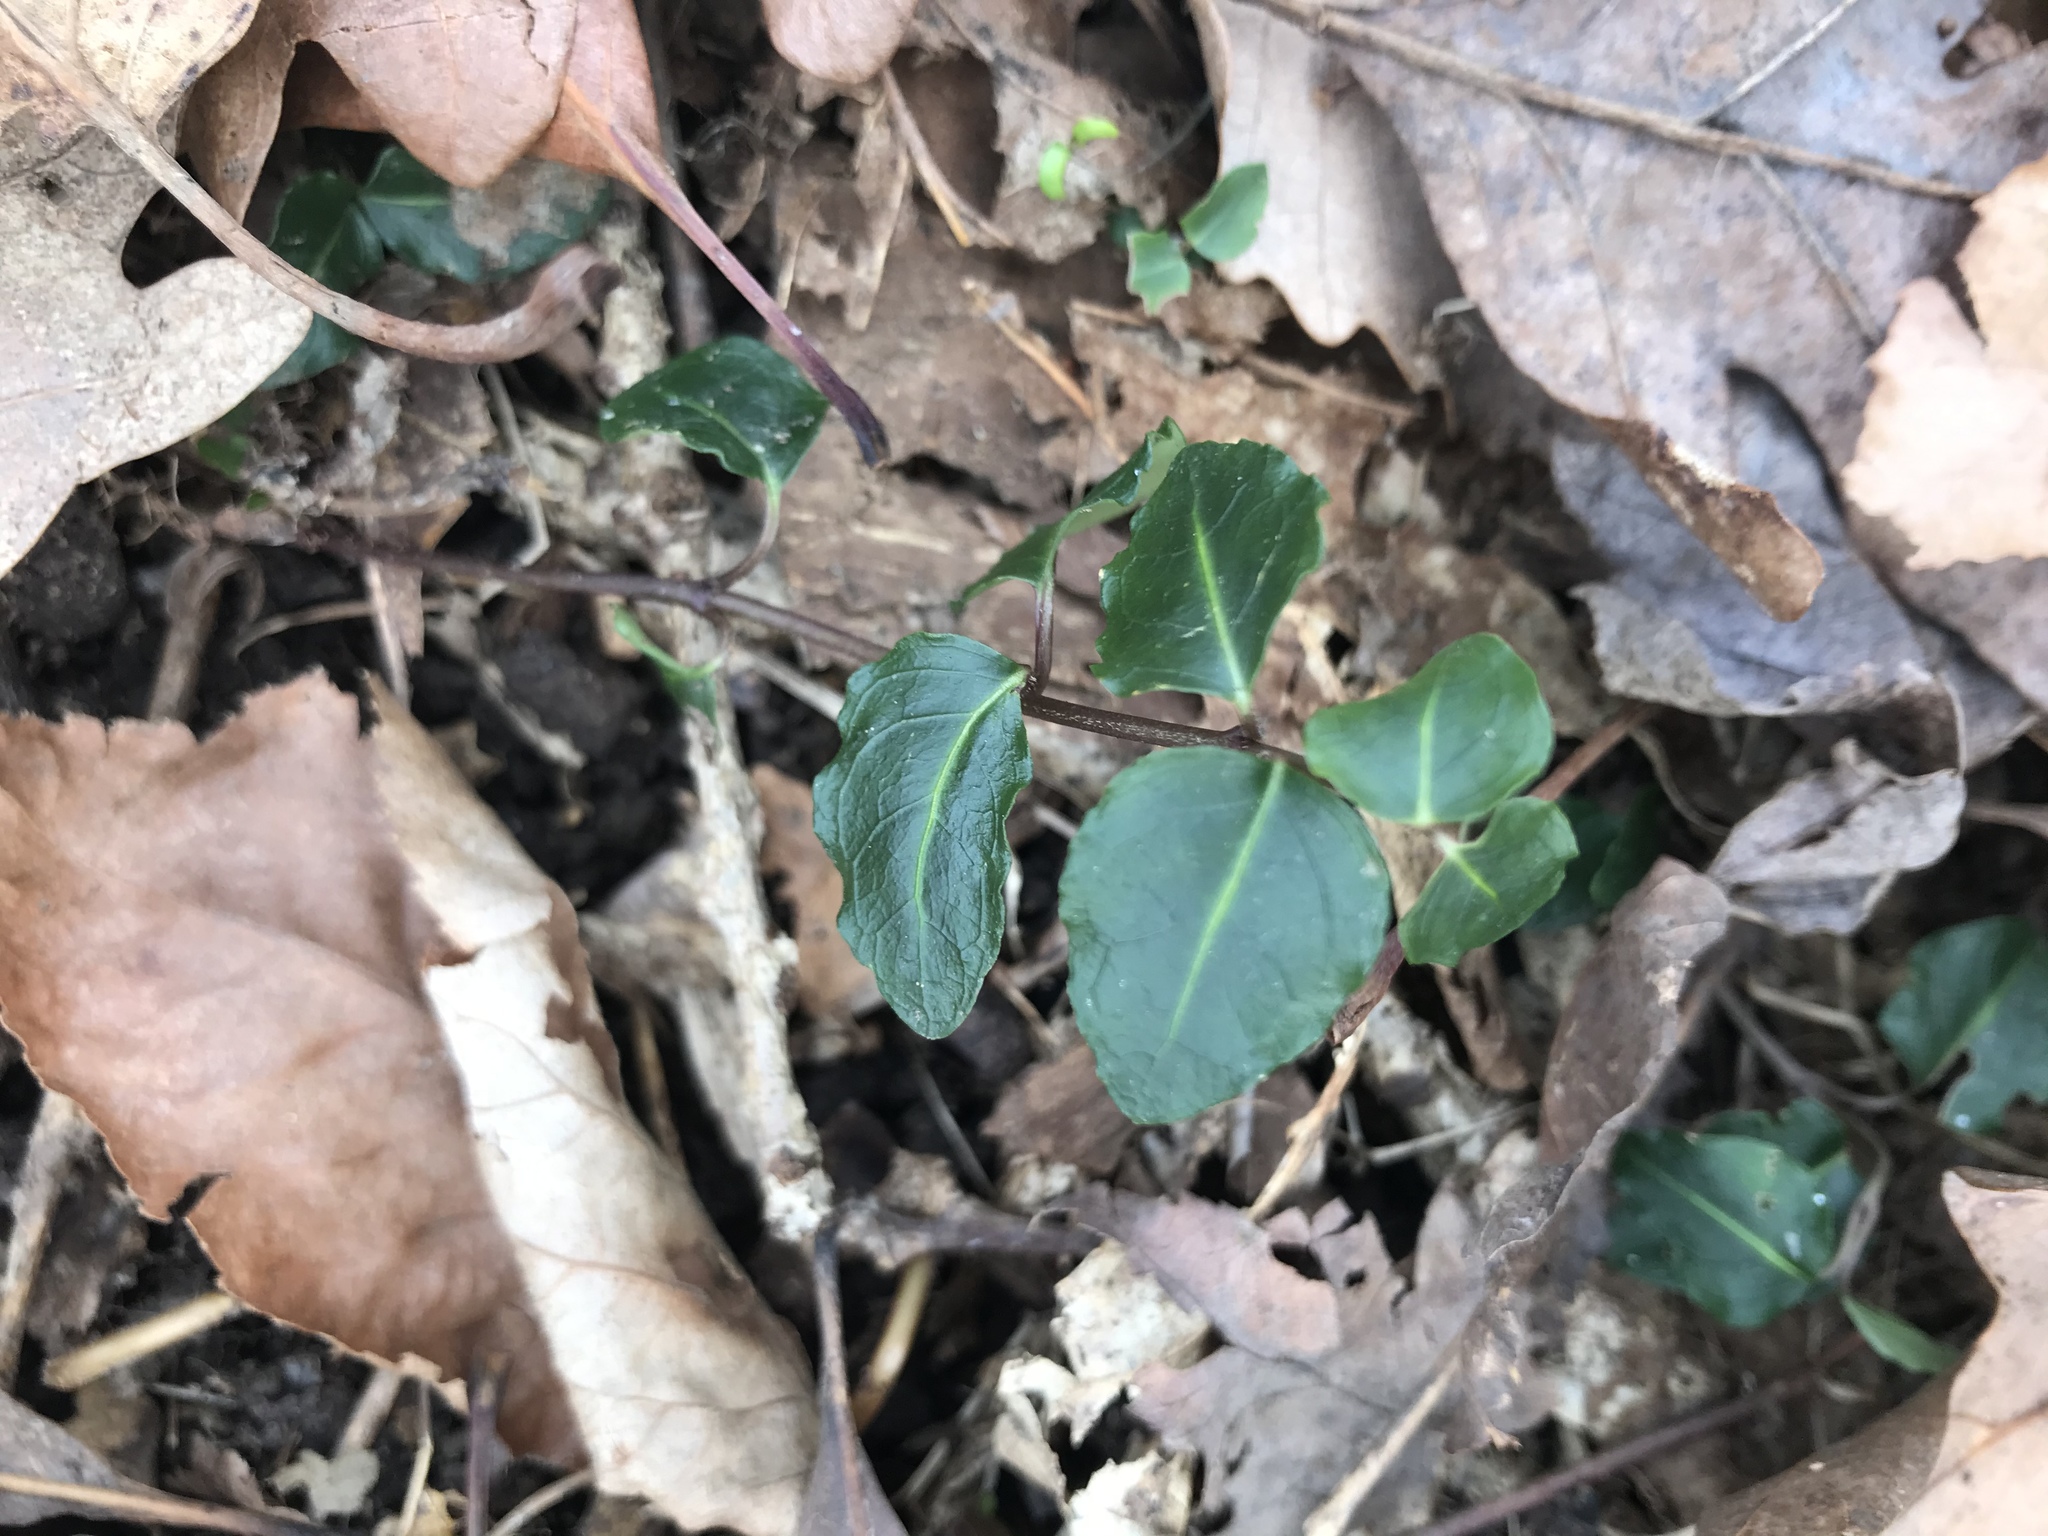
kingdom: Plantae
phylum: Tracheophyta
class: Magnoliopsida
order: Gentianales
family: Rubiaceae
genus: Mitchella
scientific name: Mitchella repens
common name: Partridge-berry
